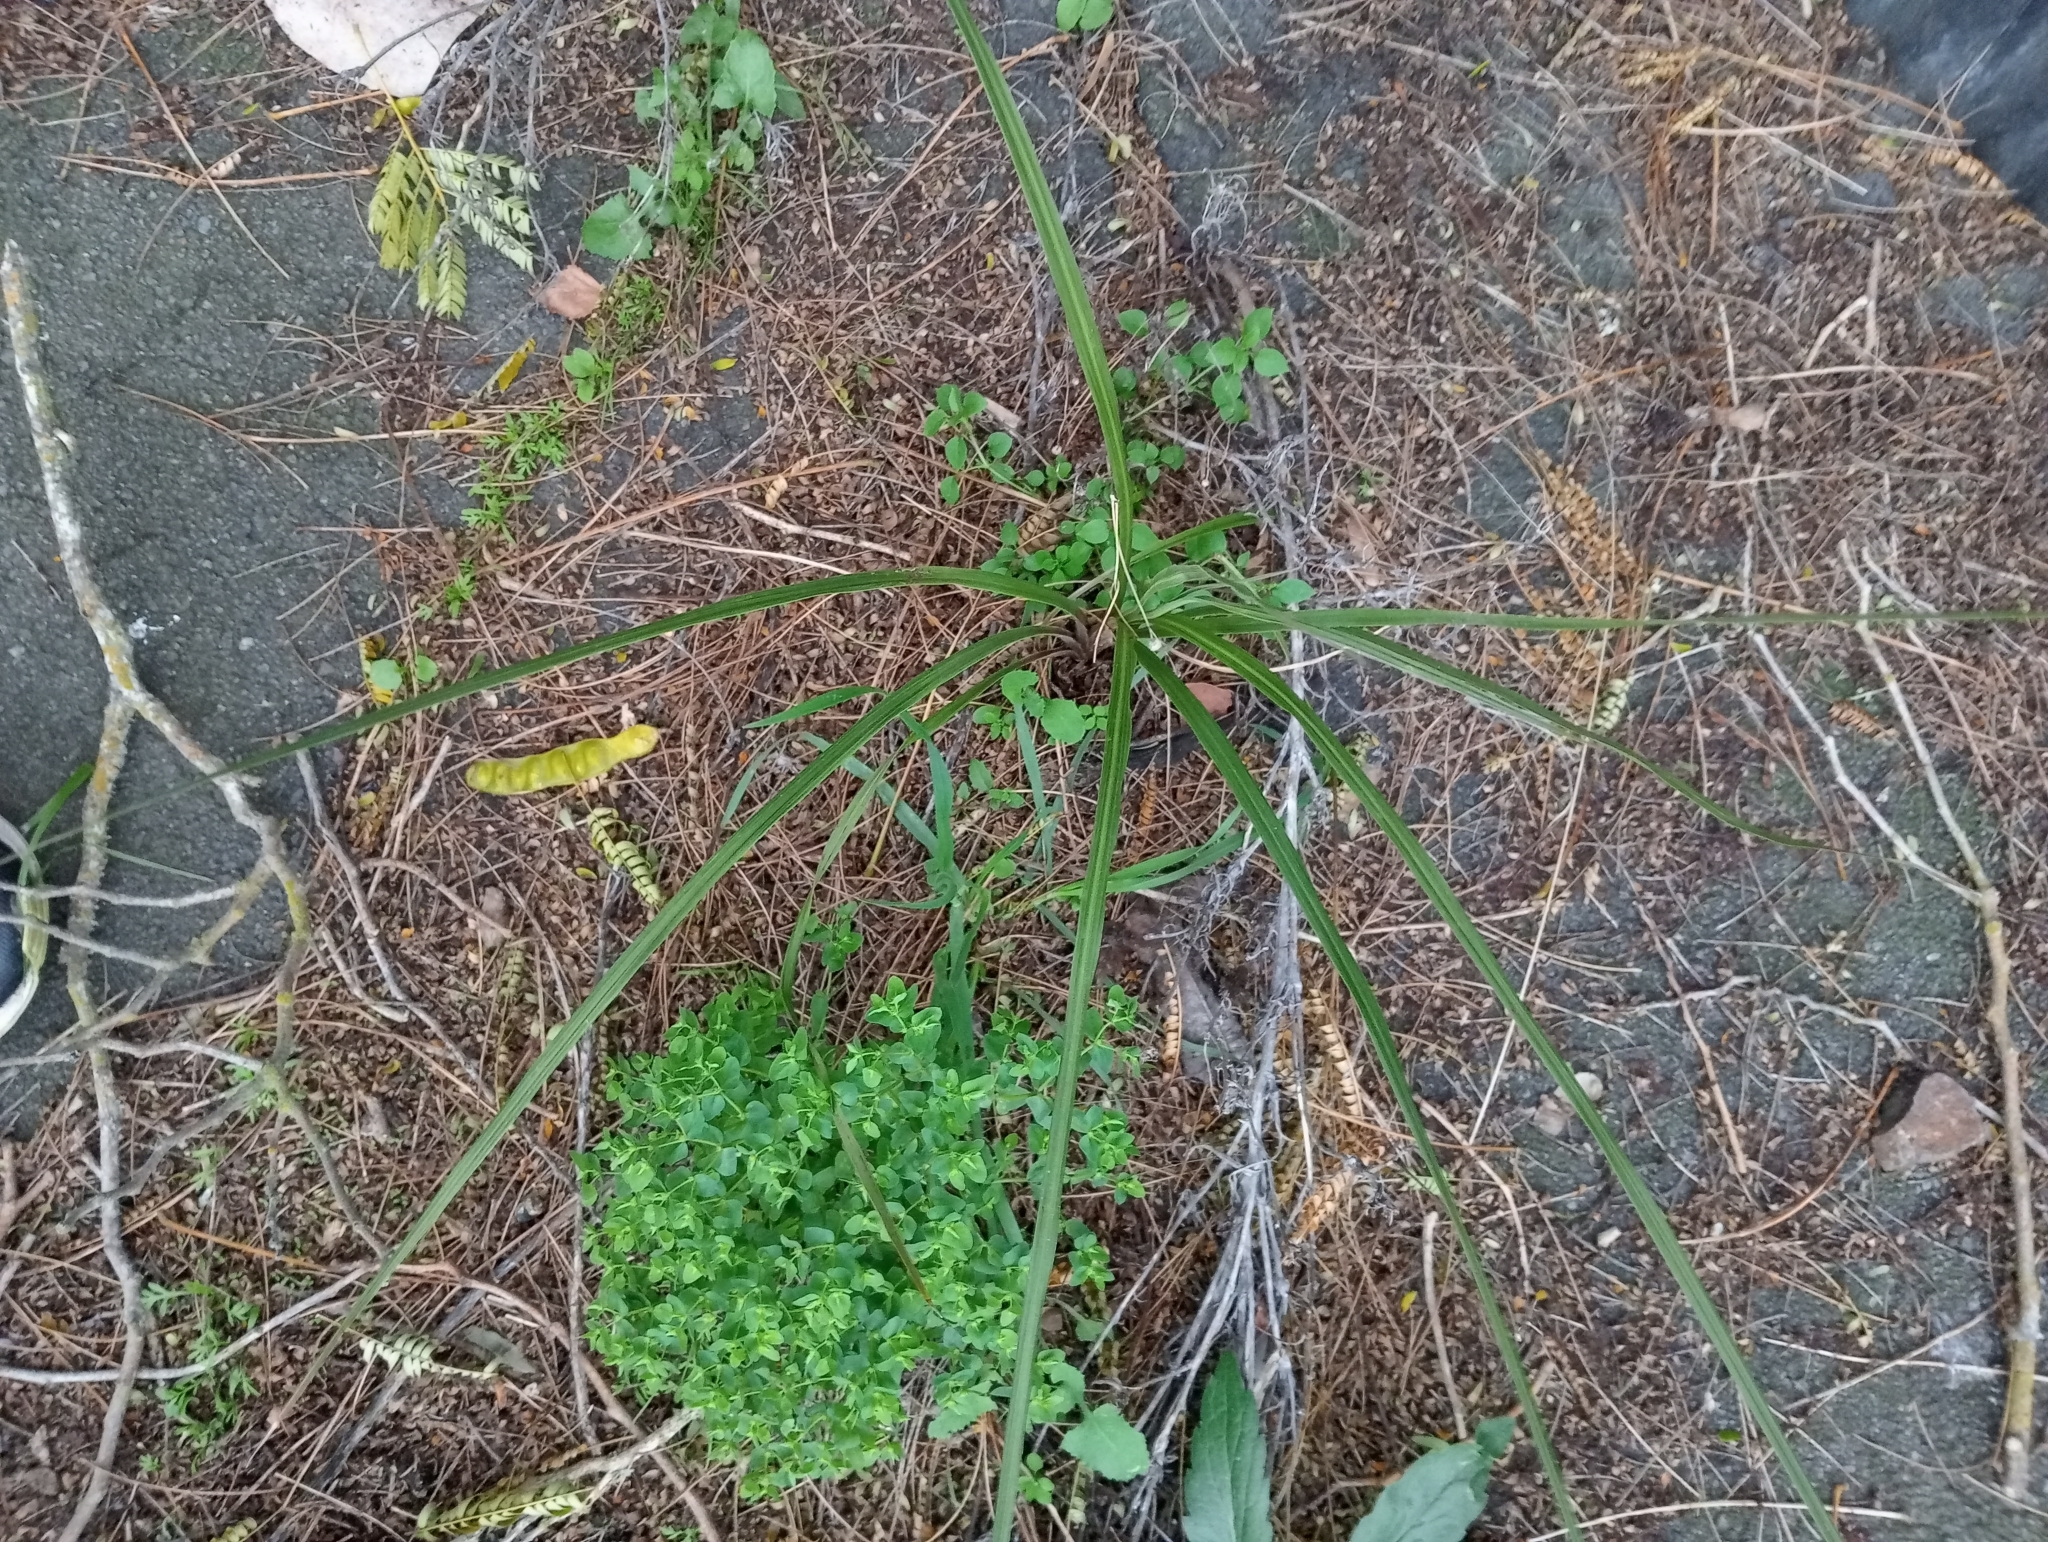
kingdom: Plantae
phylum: Tracheophyta
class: Liliopsida
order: Asparagales
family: Asparagaceae
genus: Cordyline
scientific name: Cordyline australis
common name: Cabbage-palm
